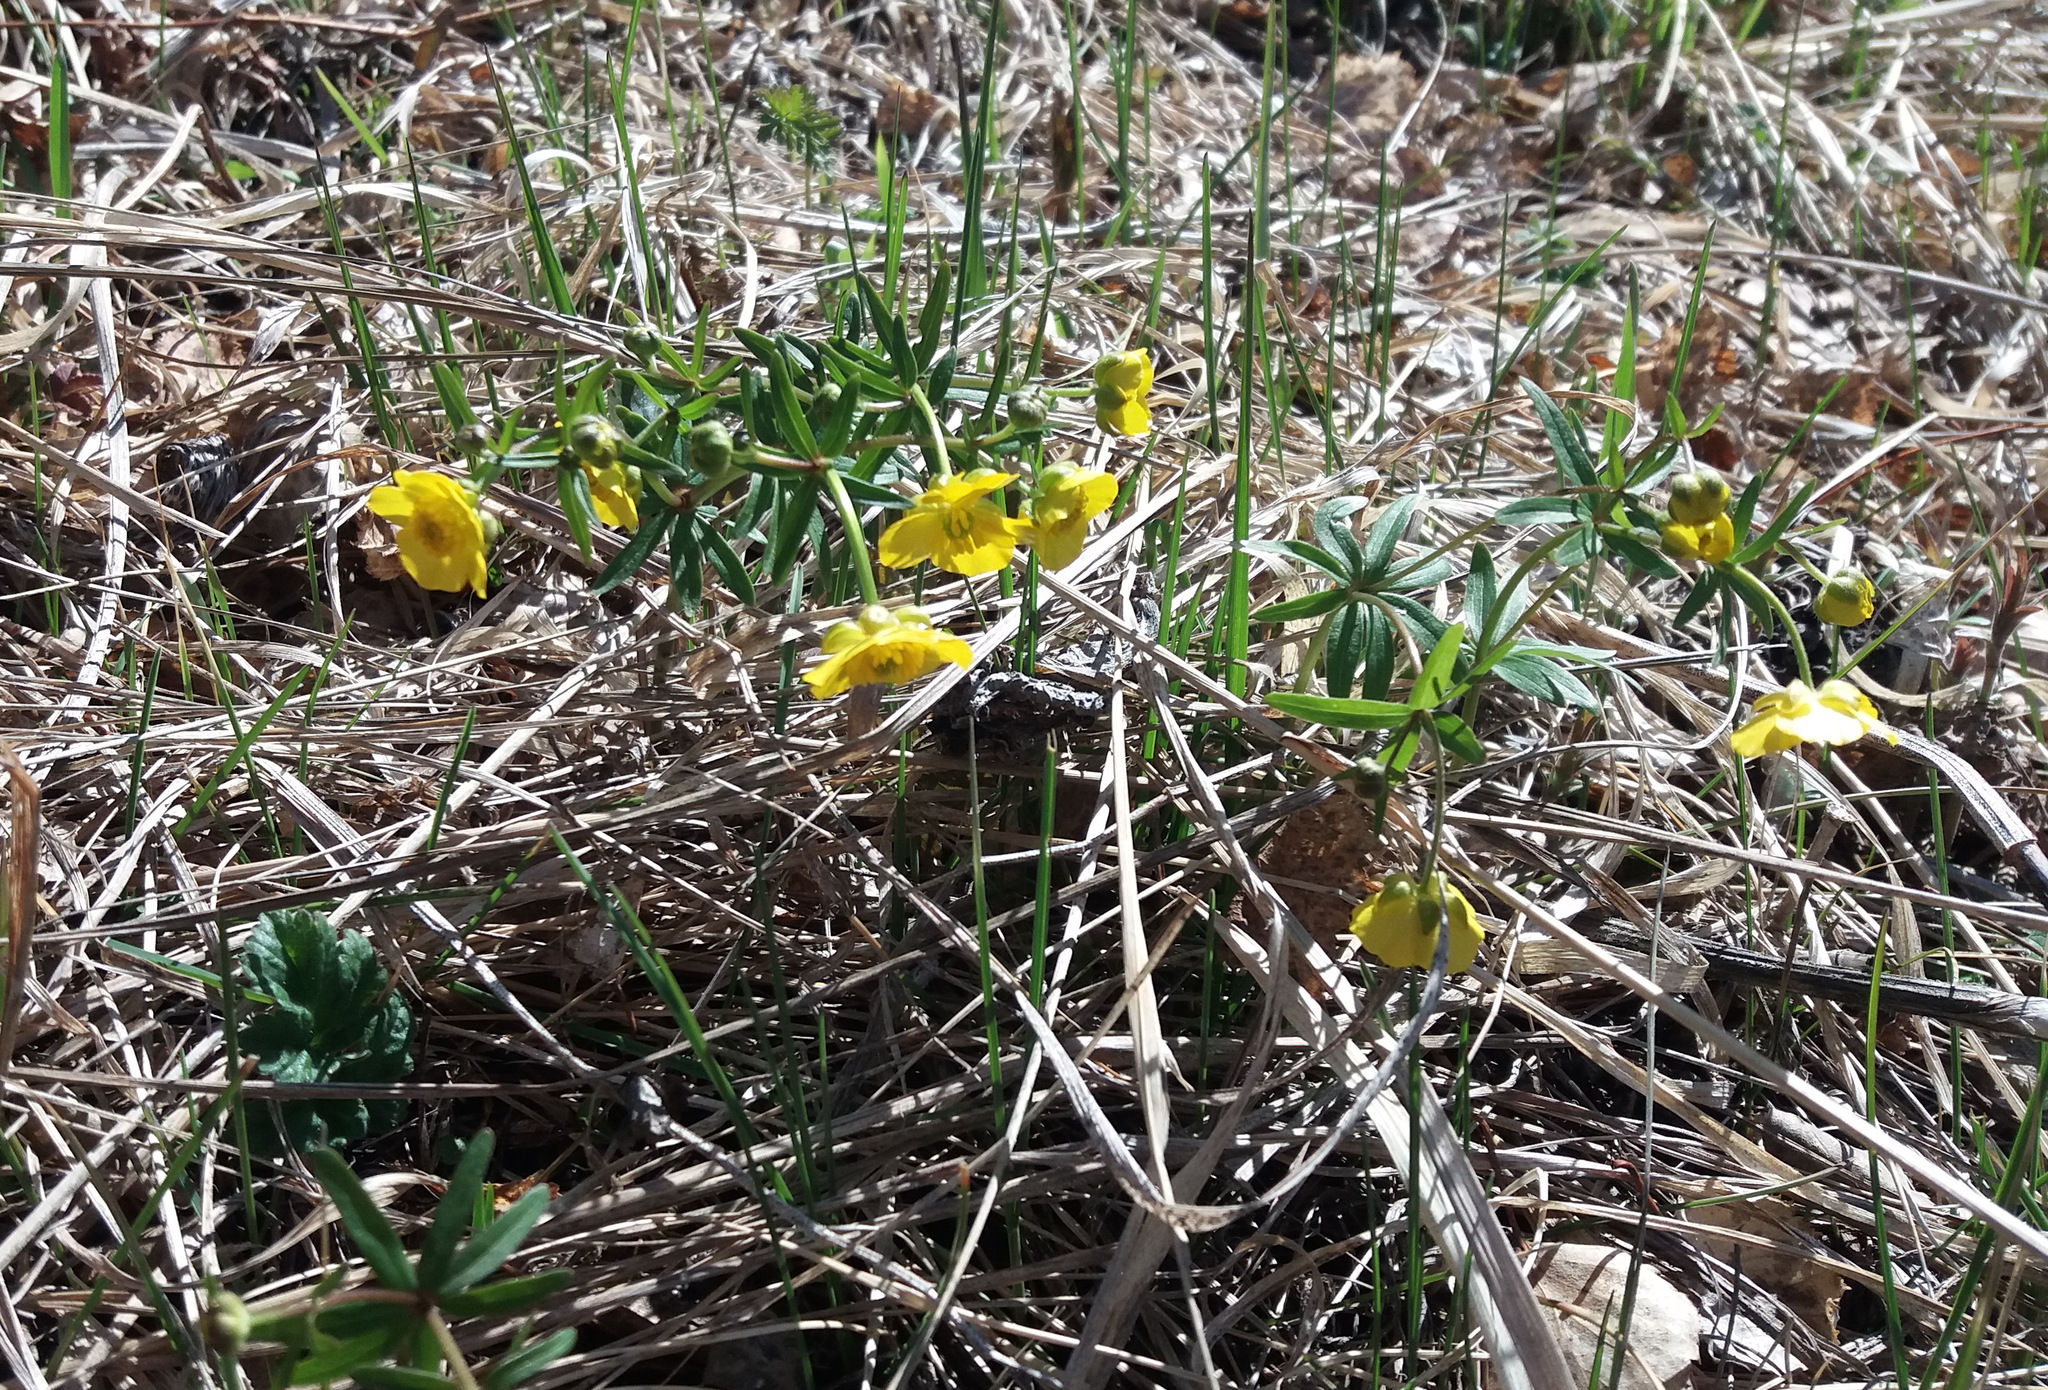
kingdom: Plantae
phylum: Tracheophyta
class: Magnoliopsida
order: Ranunculales
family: Ranunculaceae
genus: Ranunculus
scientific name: Ranunculus monophyllus
